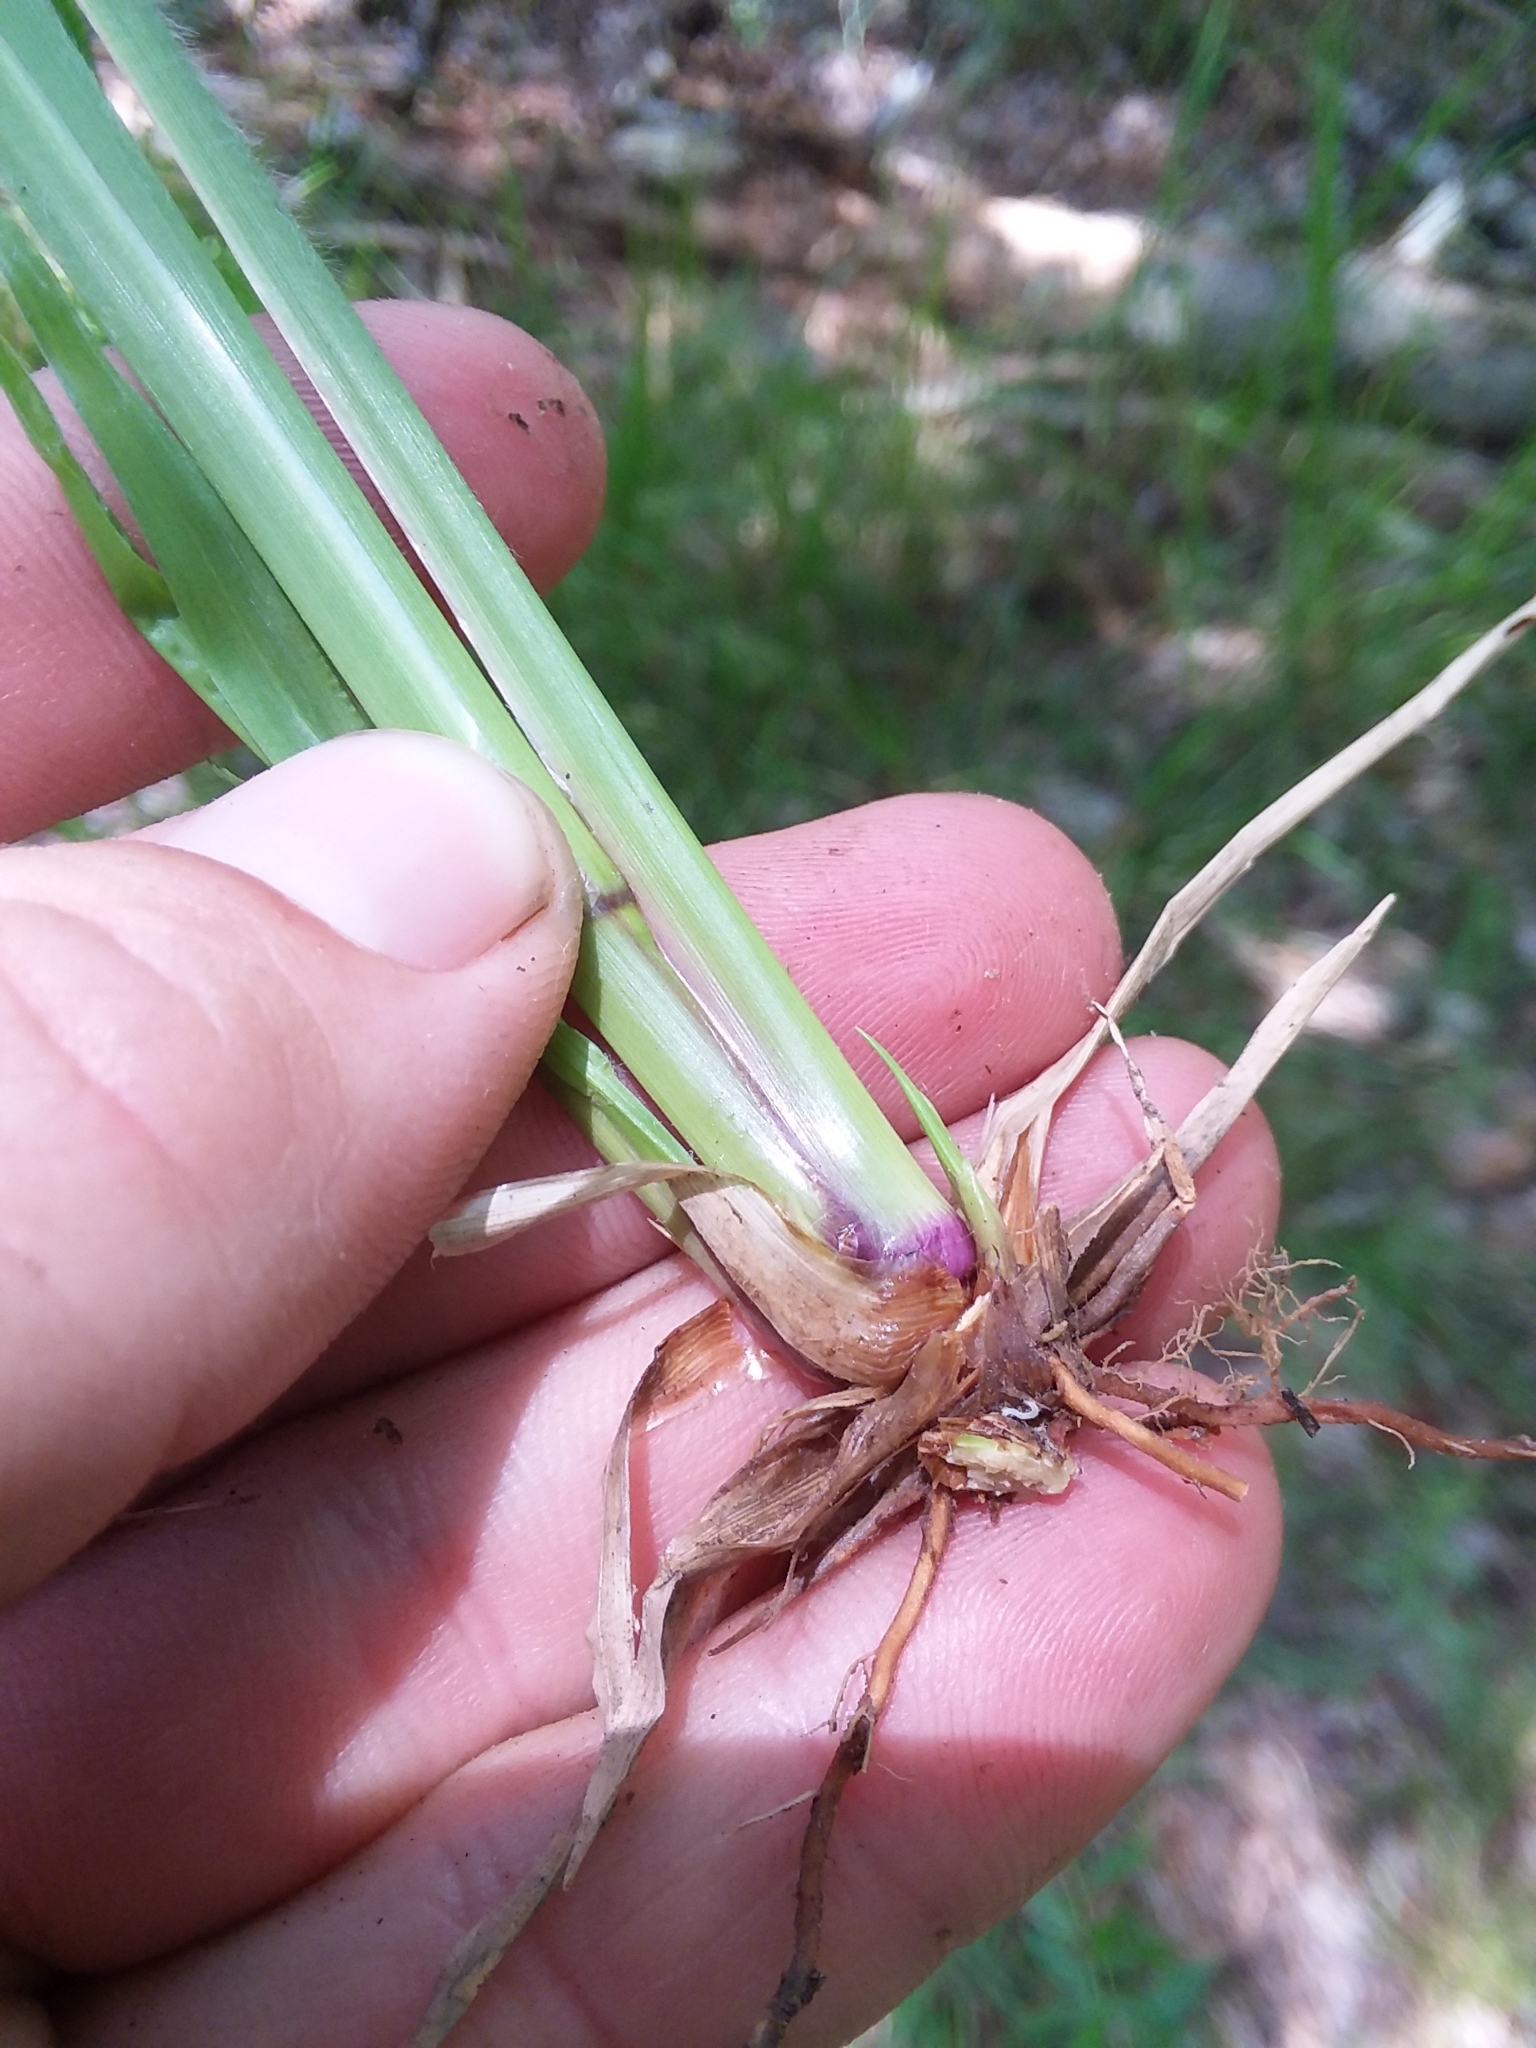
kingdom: Plantae
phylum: Tracheophyta
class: Liliopsida
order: Poales
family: Poaceae
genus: Coleataenia
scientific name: Coleataenia anceps
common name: Beaked panic grass
